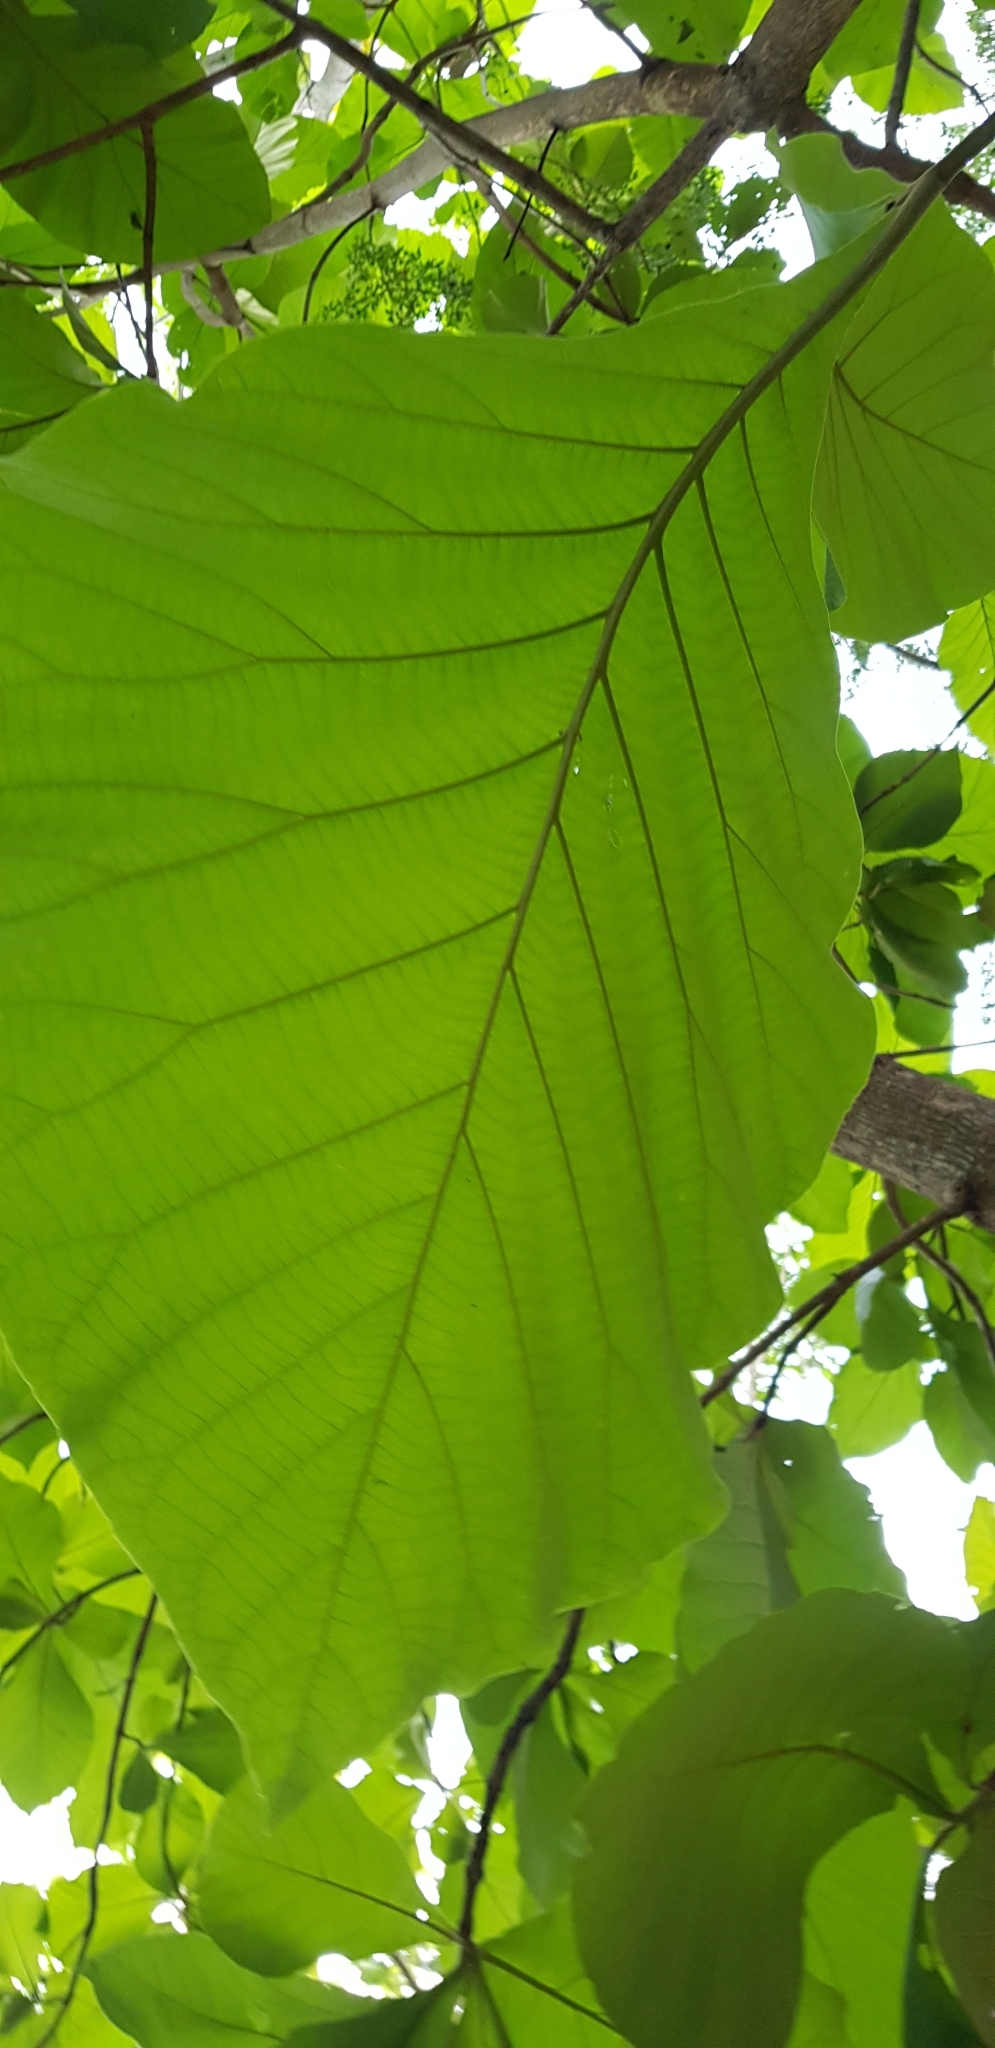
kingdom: Plantae
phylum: Tracheophyta
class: Magnoliopsida
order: Lamiales
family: Lamiaceae
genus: Tectona
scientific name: Tectona grandis
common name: Teak
